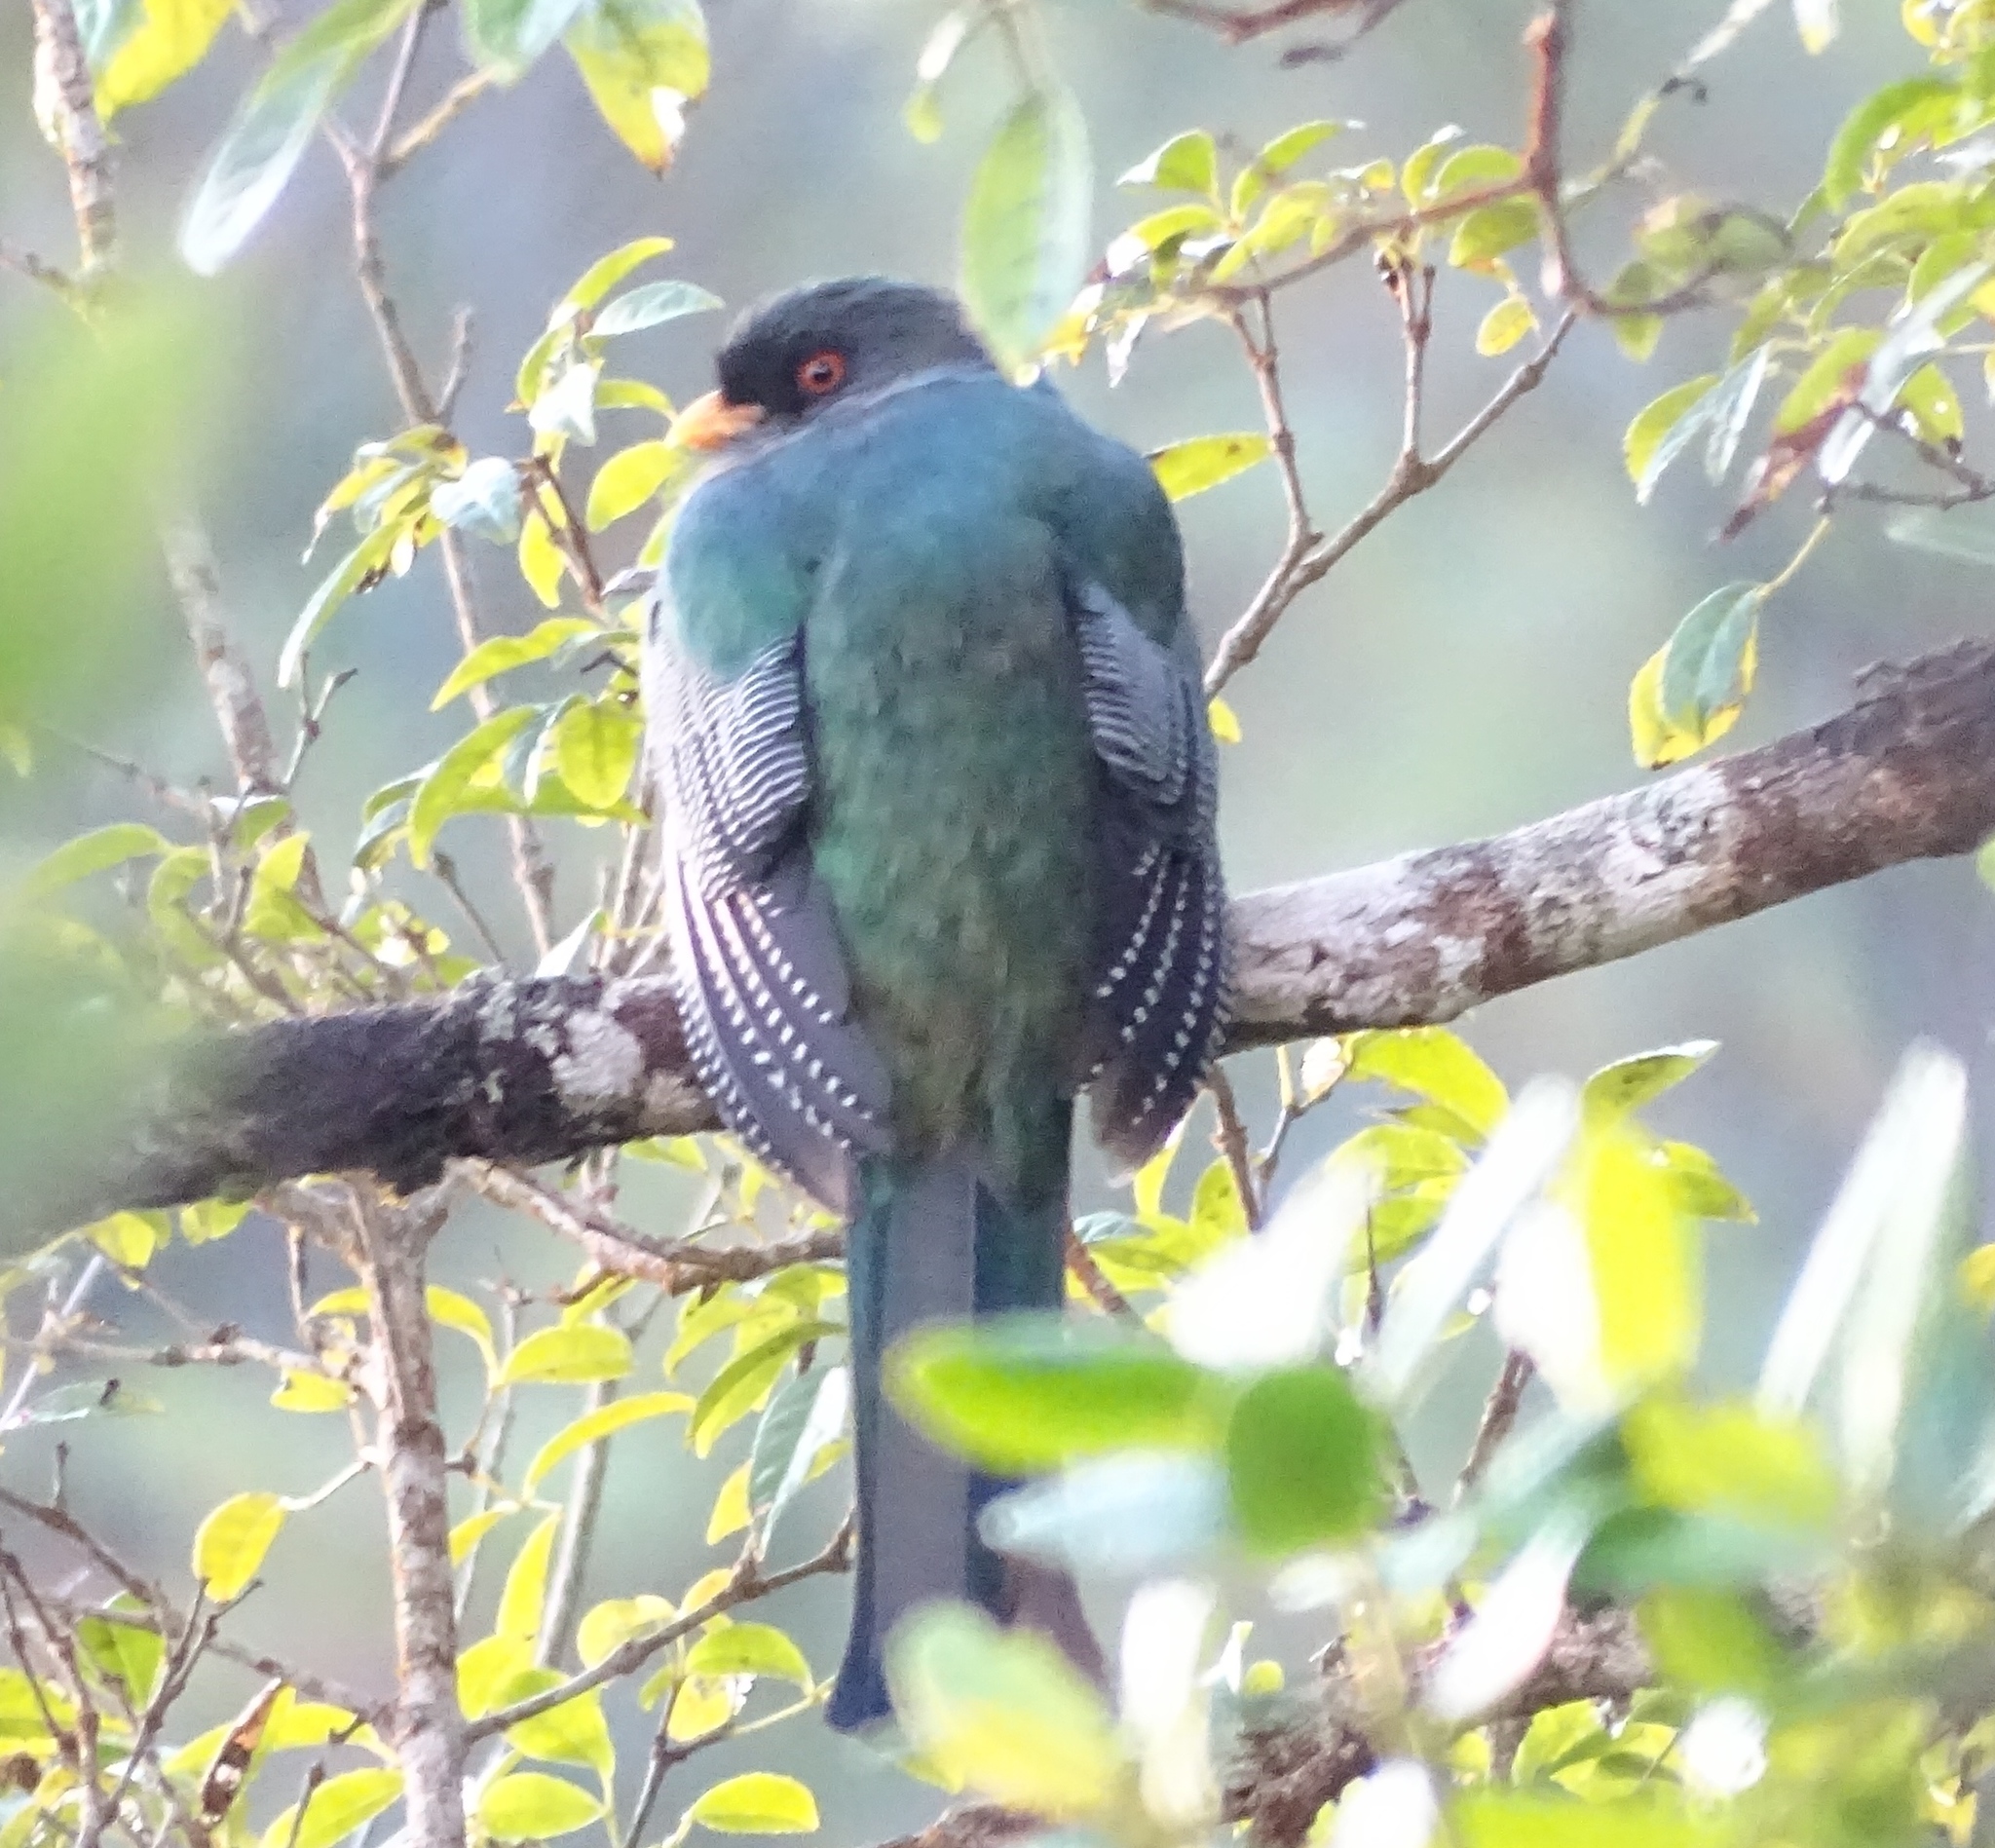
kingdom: Animalia
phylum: Chordata
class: Aves
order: Trogoniformes
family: Trogonidae
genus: Priotelus
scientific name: Priotelus roseigaster
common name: Hispaniolan trogon
